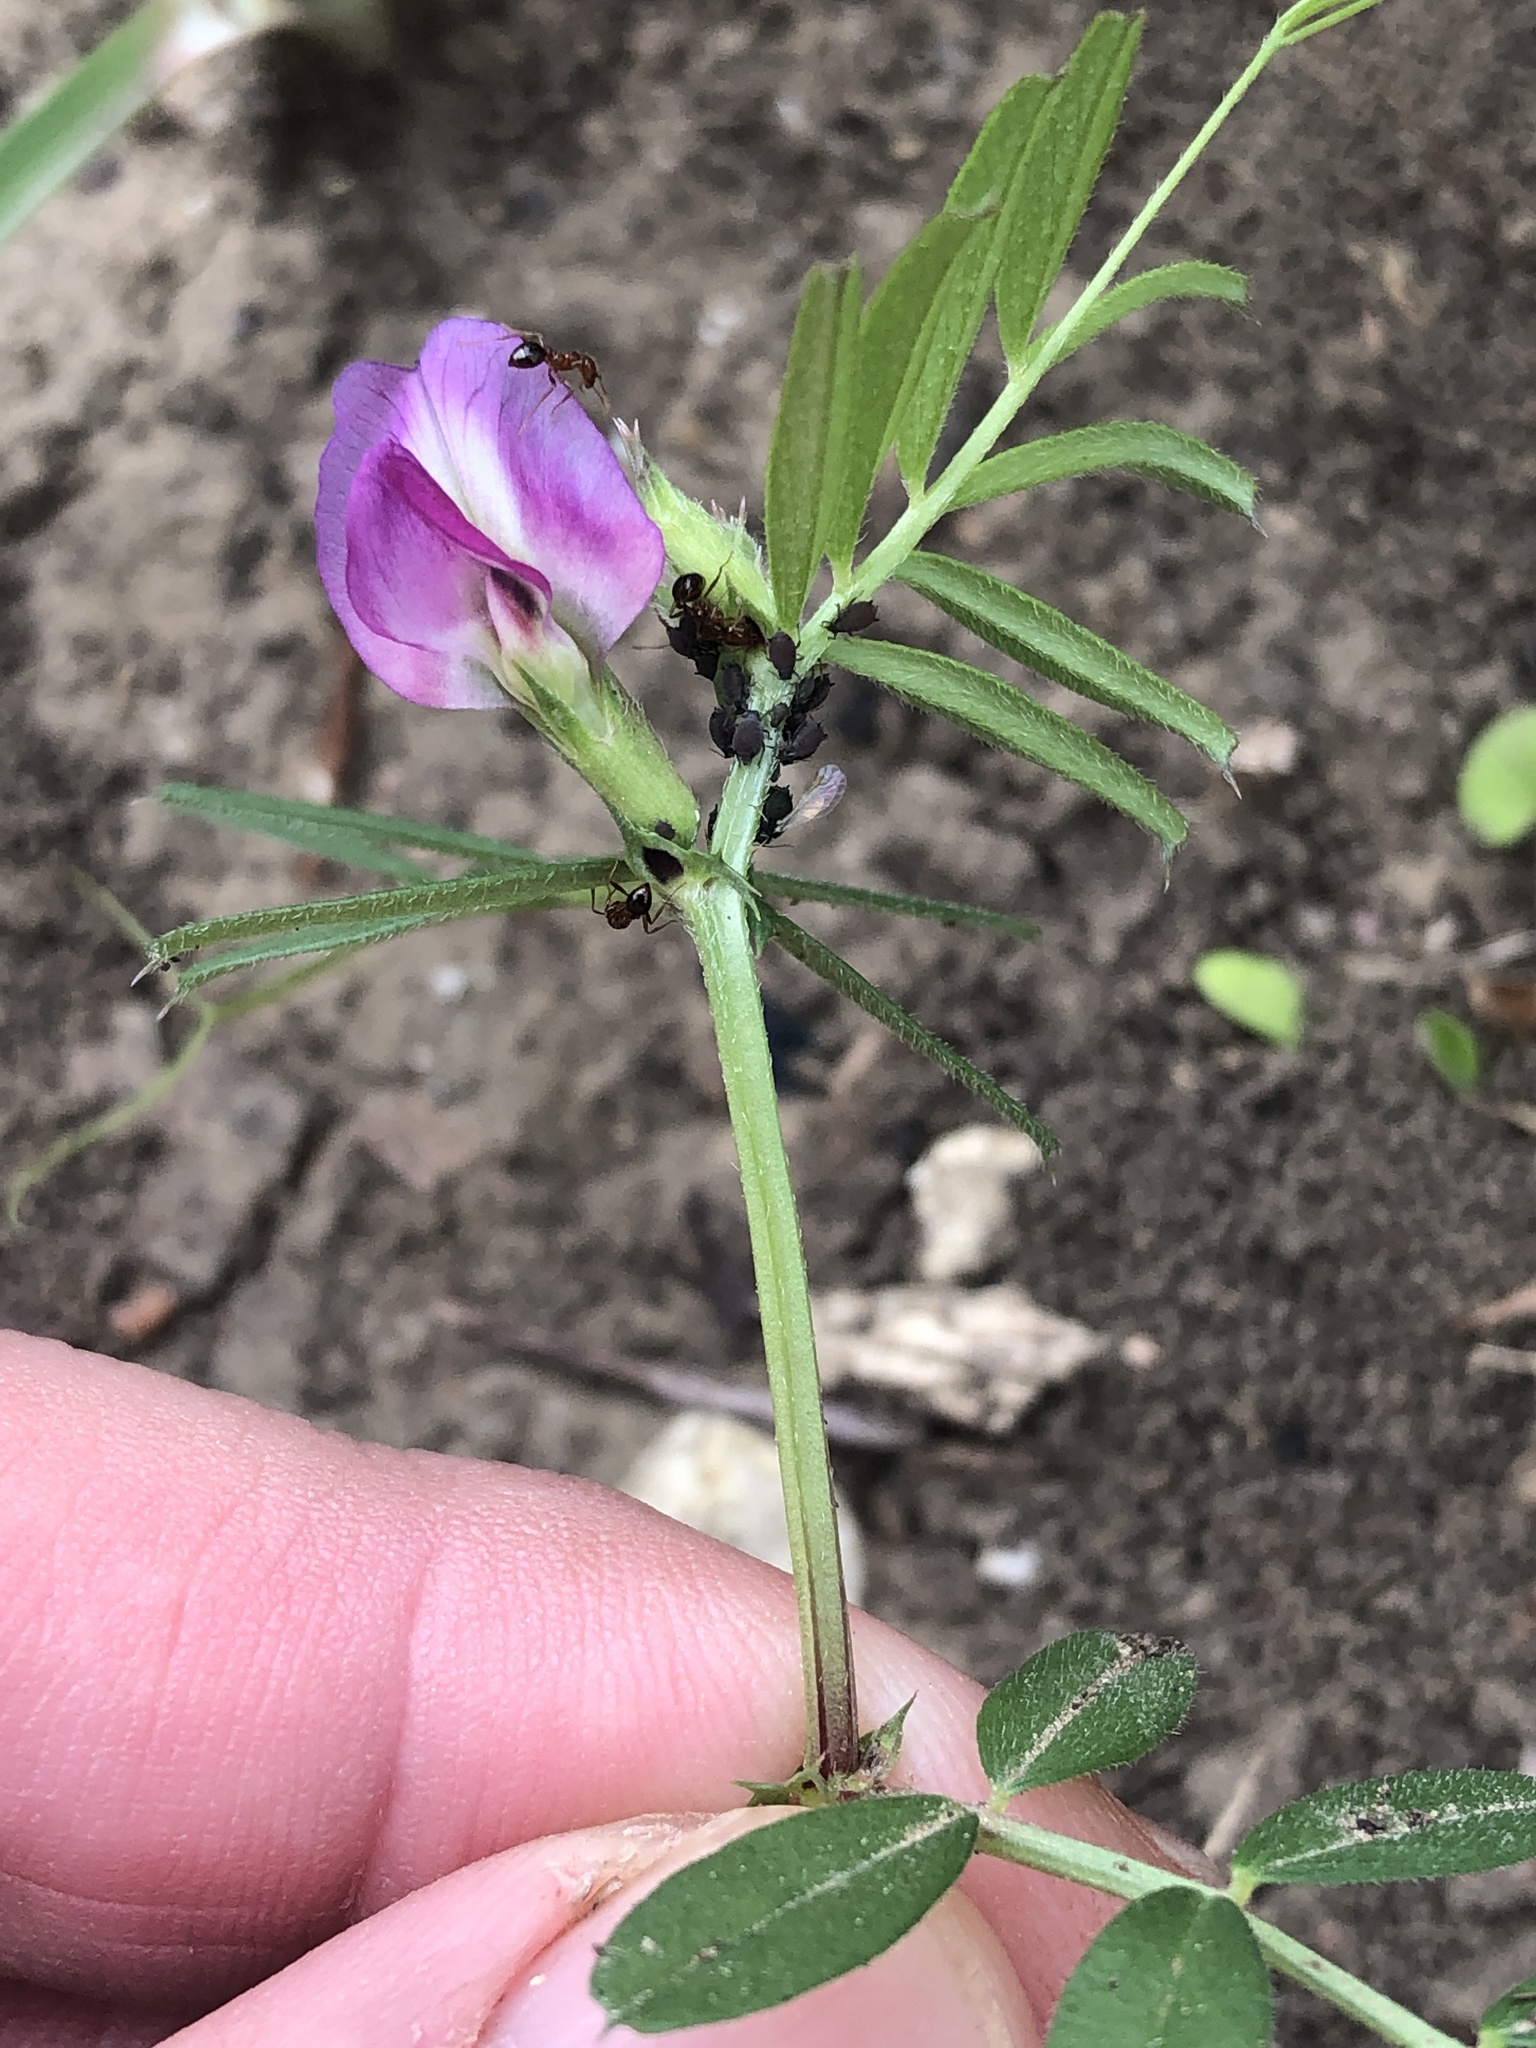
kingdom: Plantae
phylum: Tracheophyta
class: Magnoliopsida
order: Fabales
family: Fabaceae
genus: Vicia
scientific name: Vicia sativa
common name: Garden vetch
